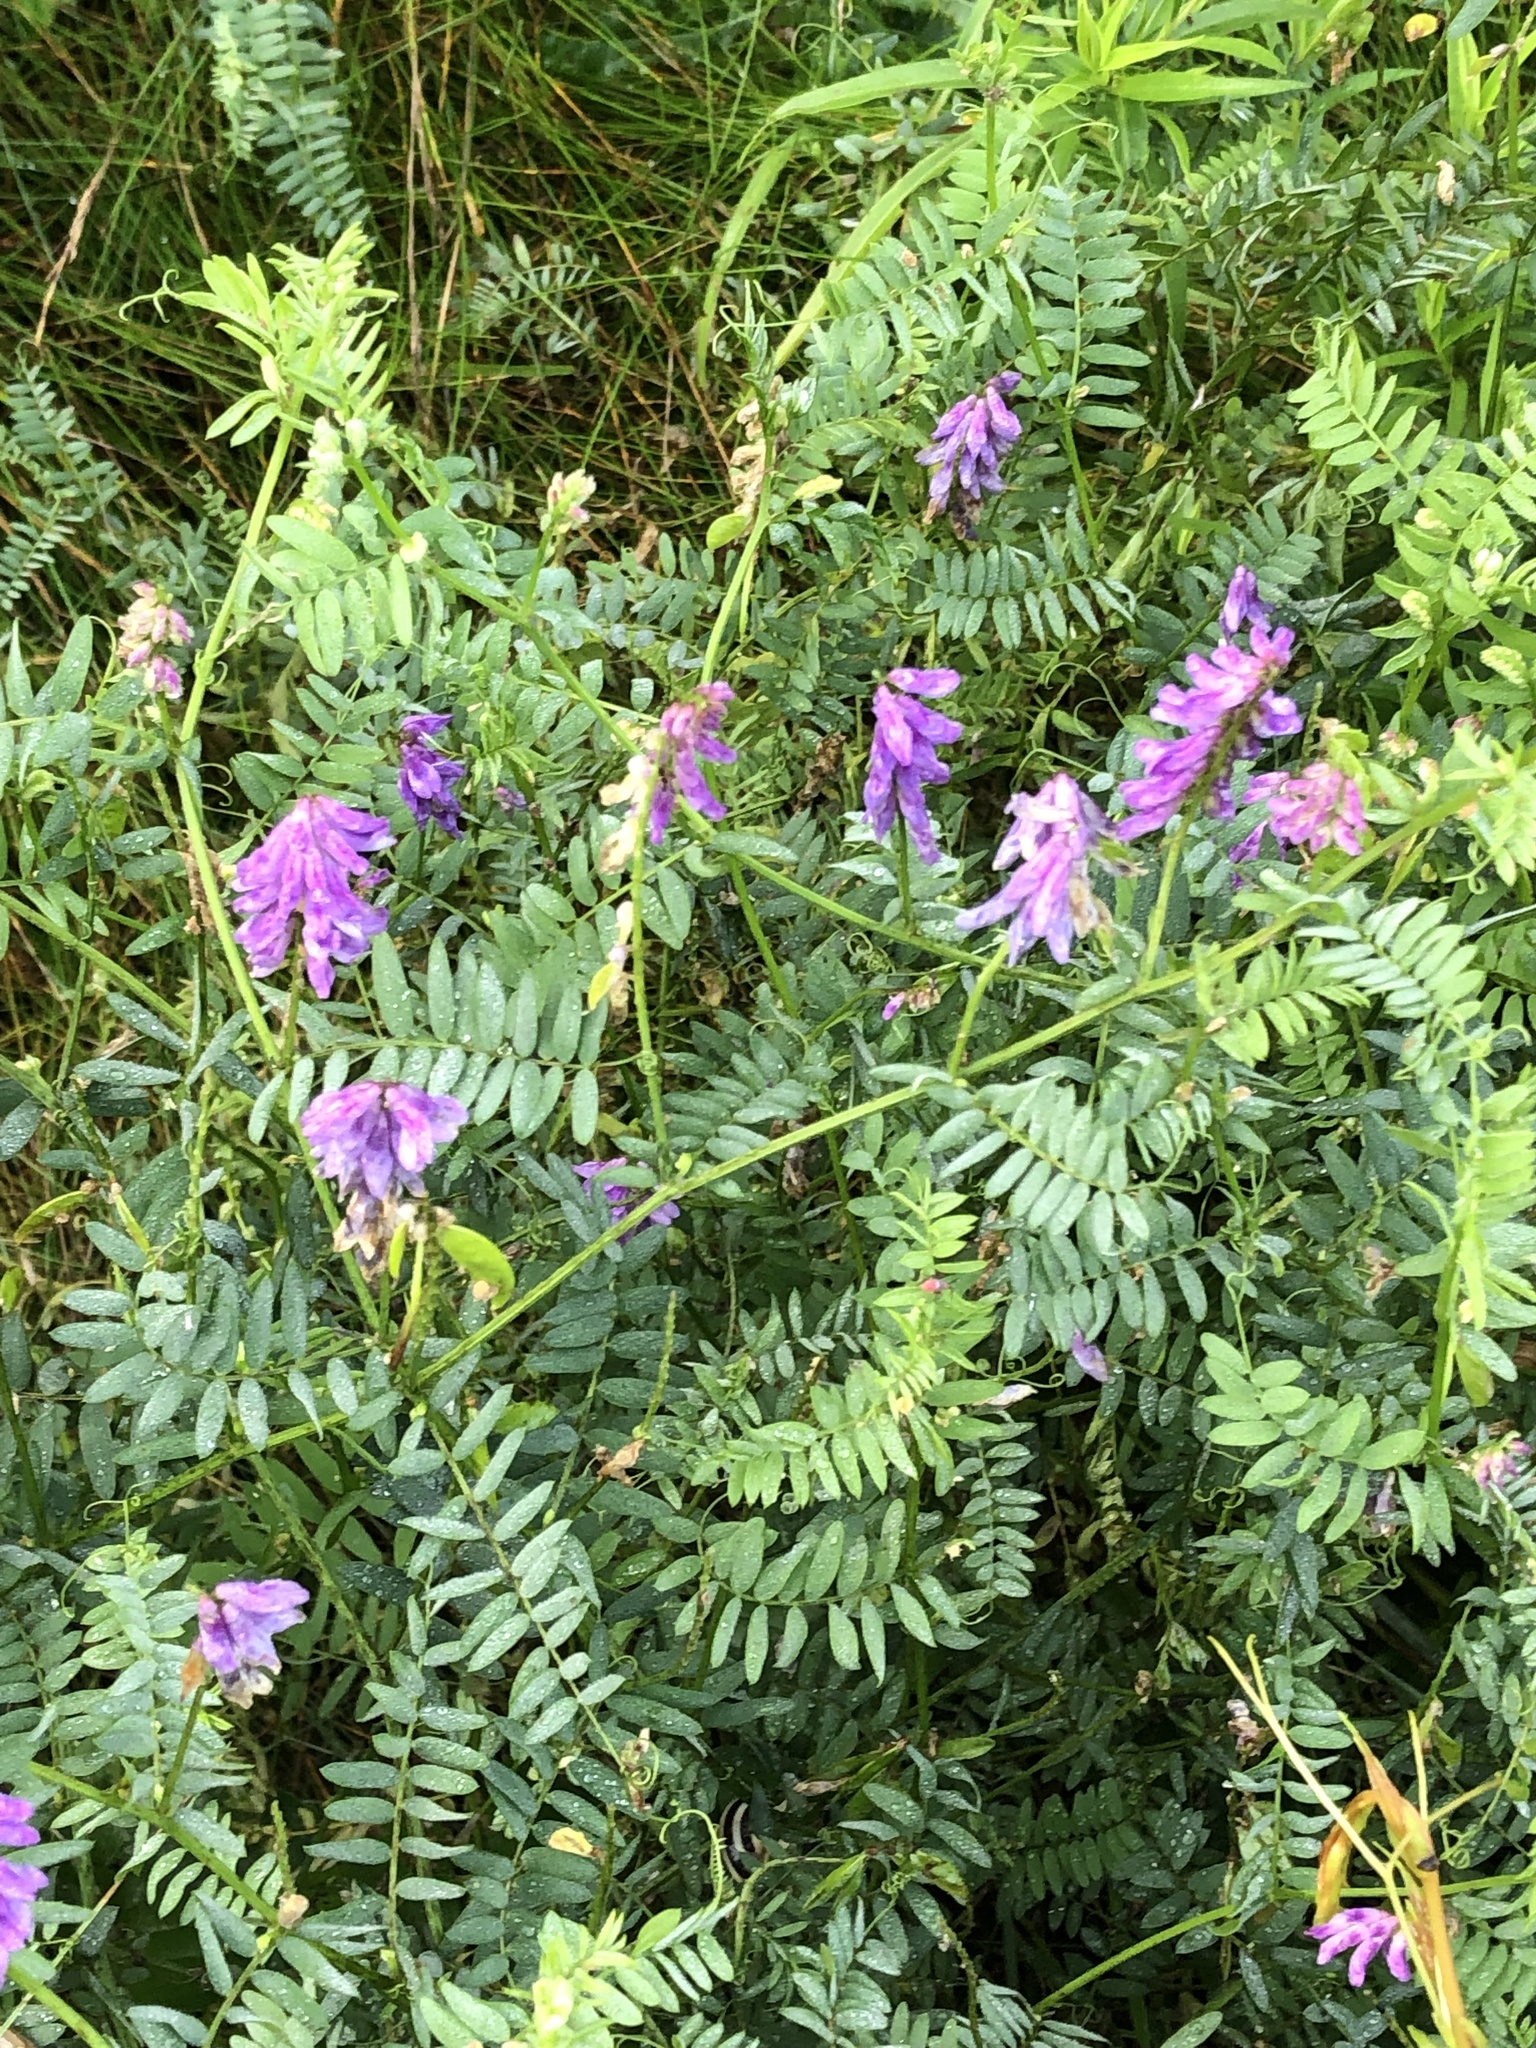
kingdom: Plantae
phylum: Tracheophyta
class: Magnoliopsida
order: Fabales
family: Fabaceae
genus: Vicia
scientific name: Vicia cracca
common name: Bird vetch
